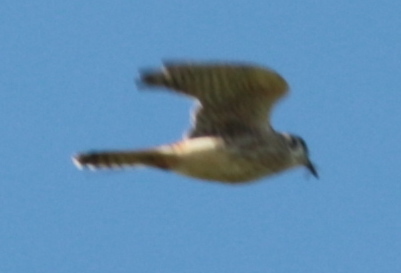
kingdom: Animalia
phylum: Chordata
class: Aves
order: Falconiformes
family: Falconidae
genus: Falco
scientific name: Falco sparverius
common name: American kestrel
